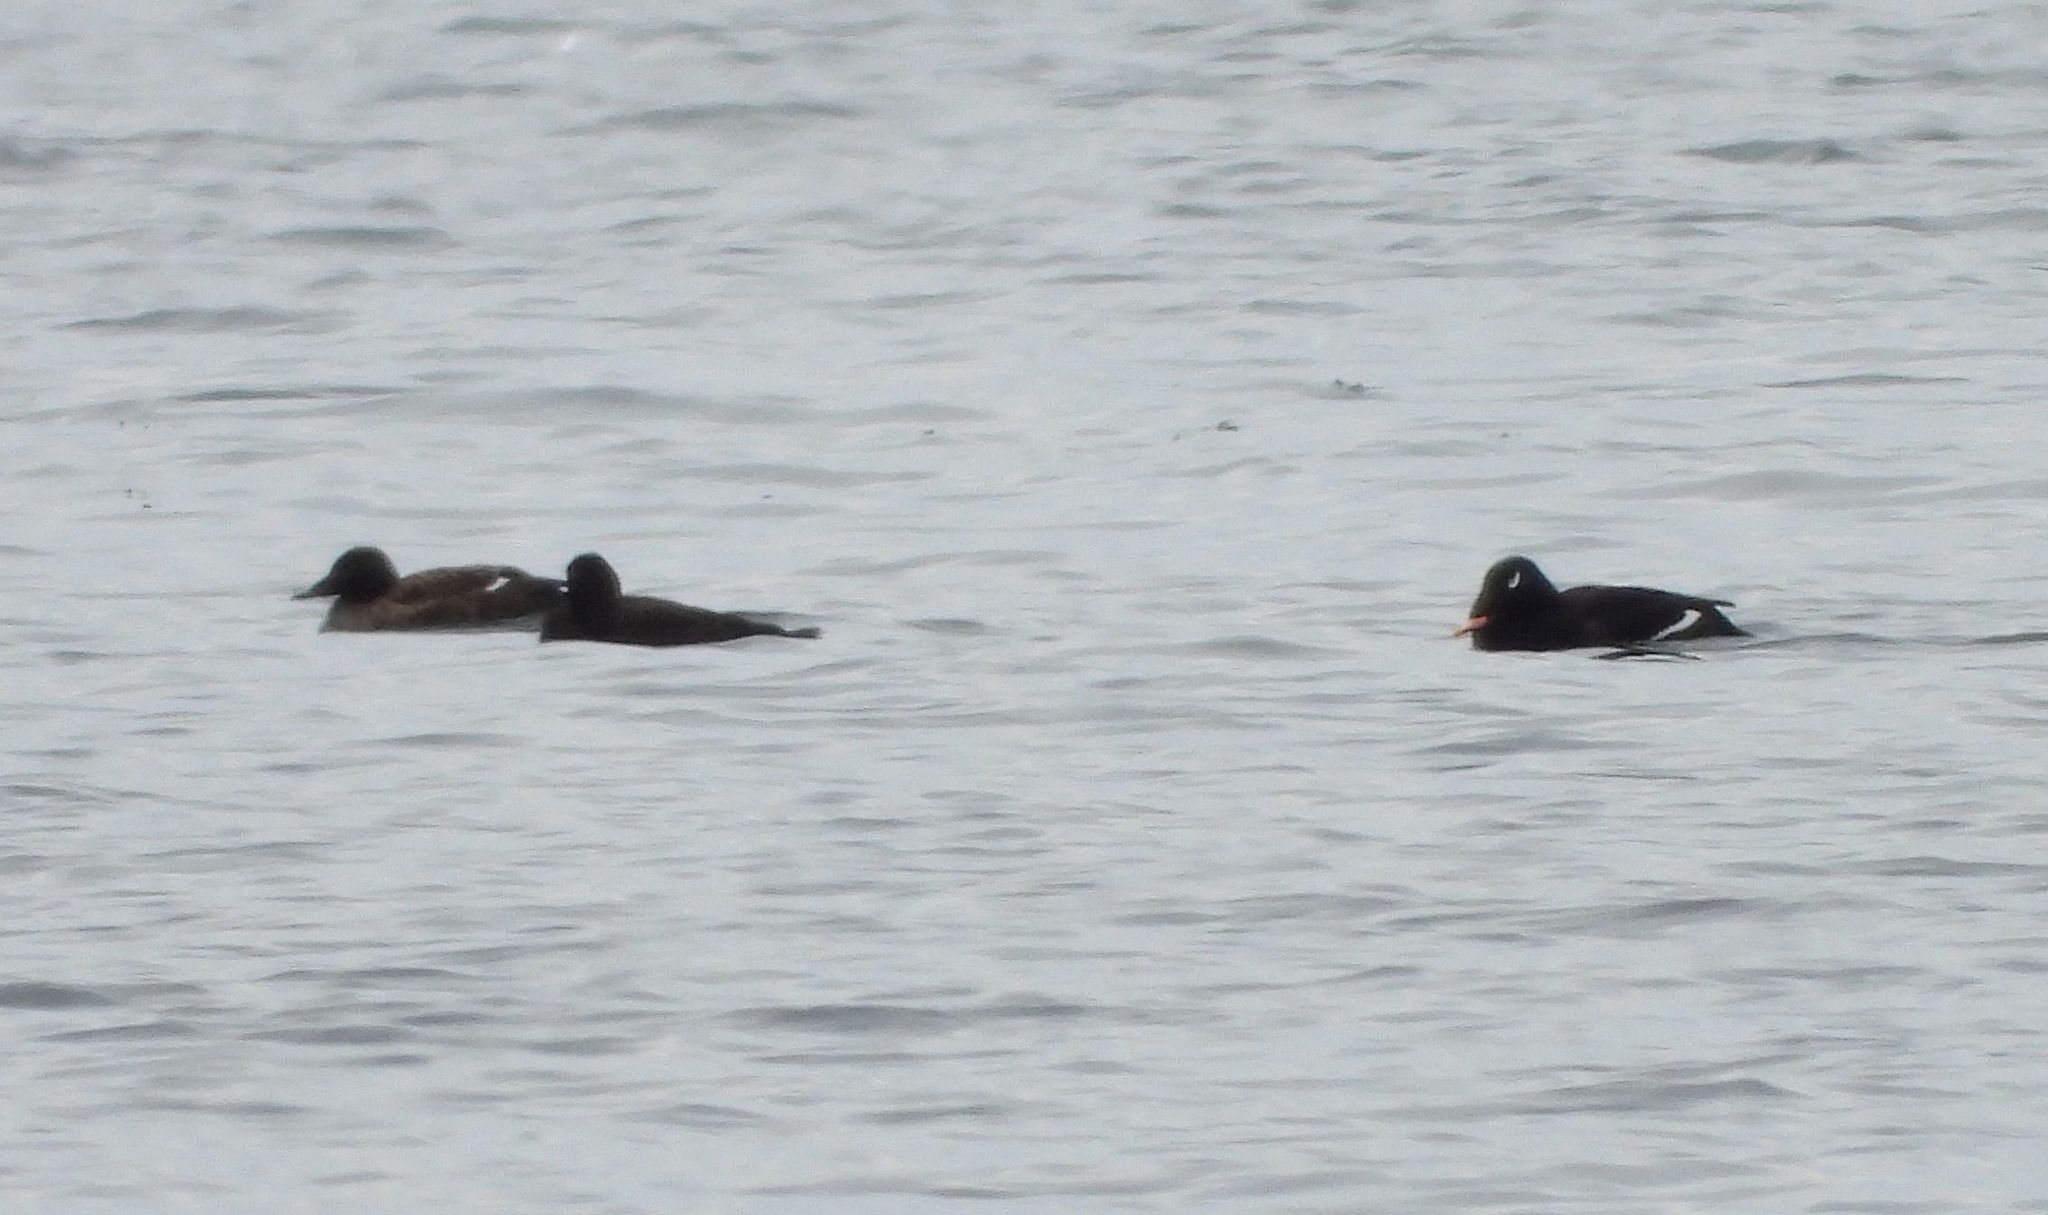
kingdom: Animalia
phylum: Chordata
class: Aves
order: Anseriformes
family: Anatidae
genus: Melanitta
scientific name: Melanitta deglandi
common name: White-winged scoter
